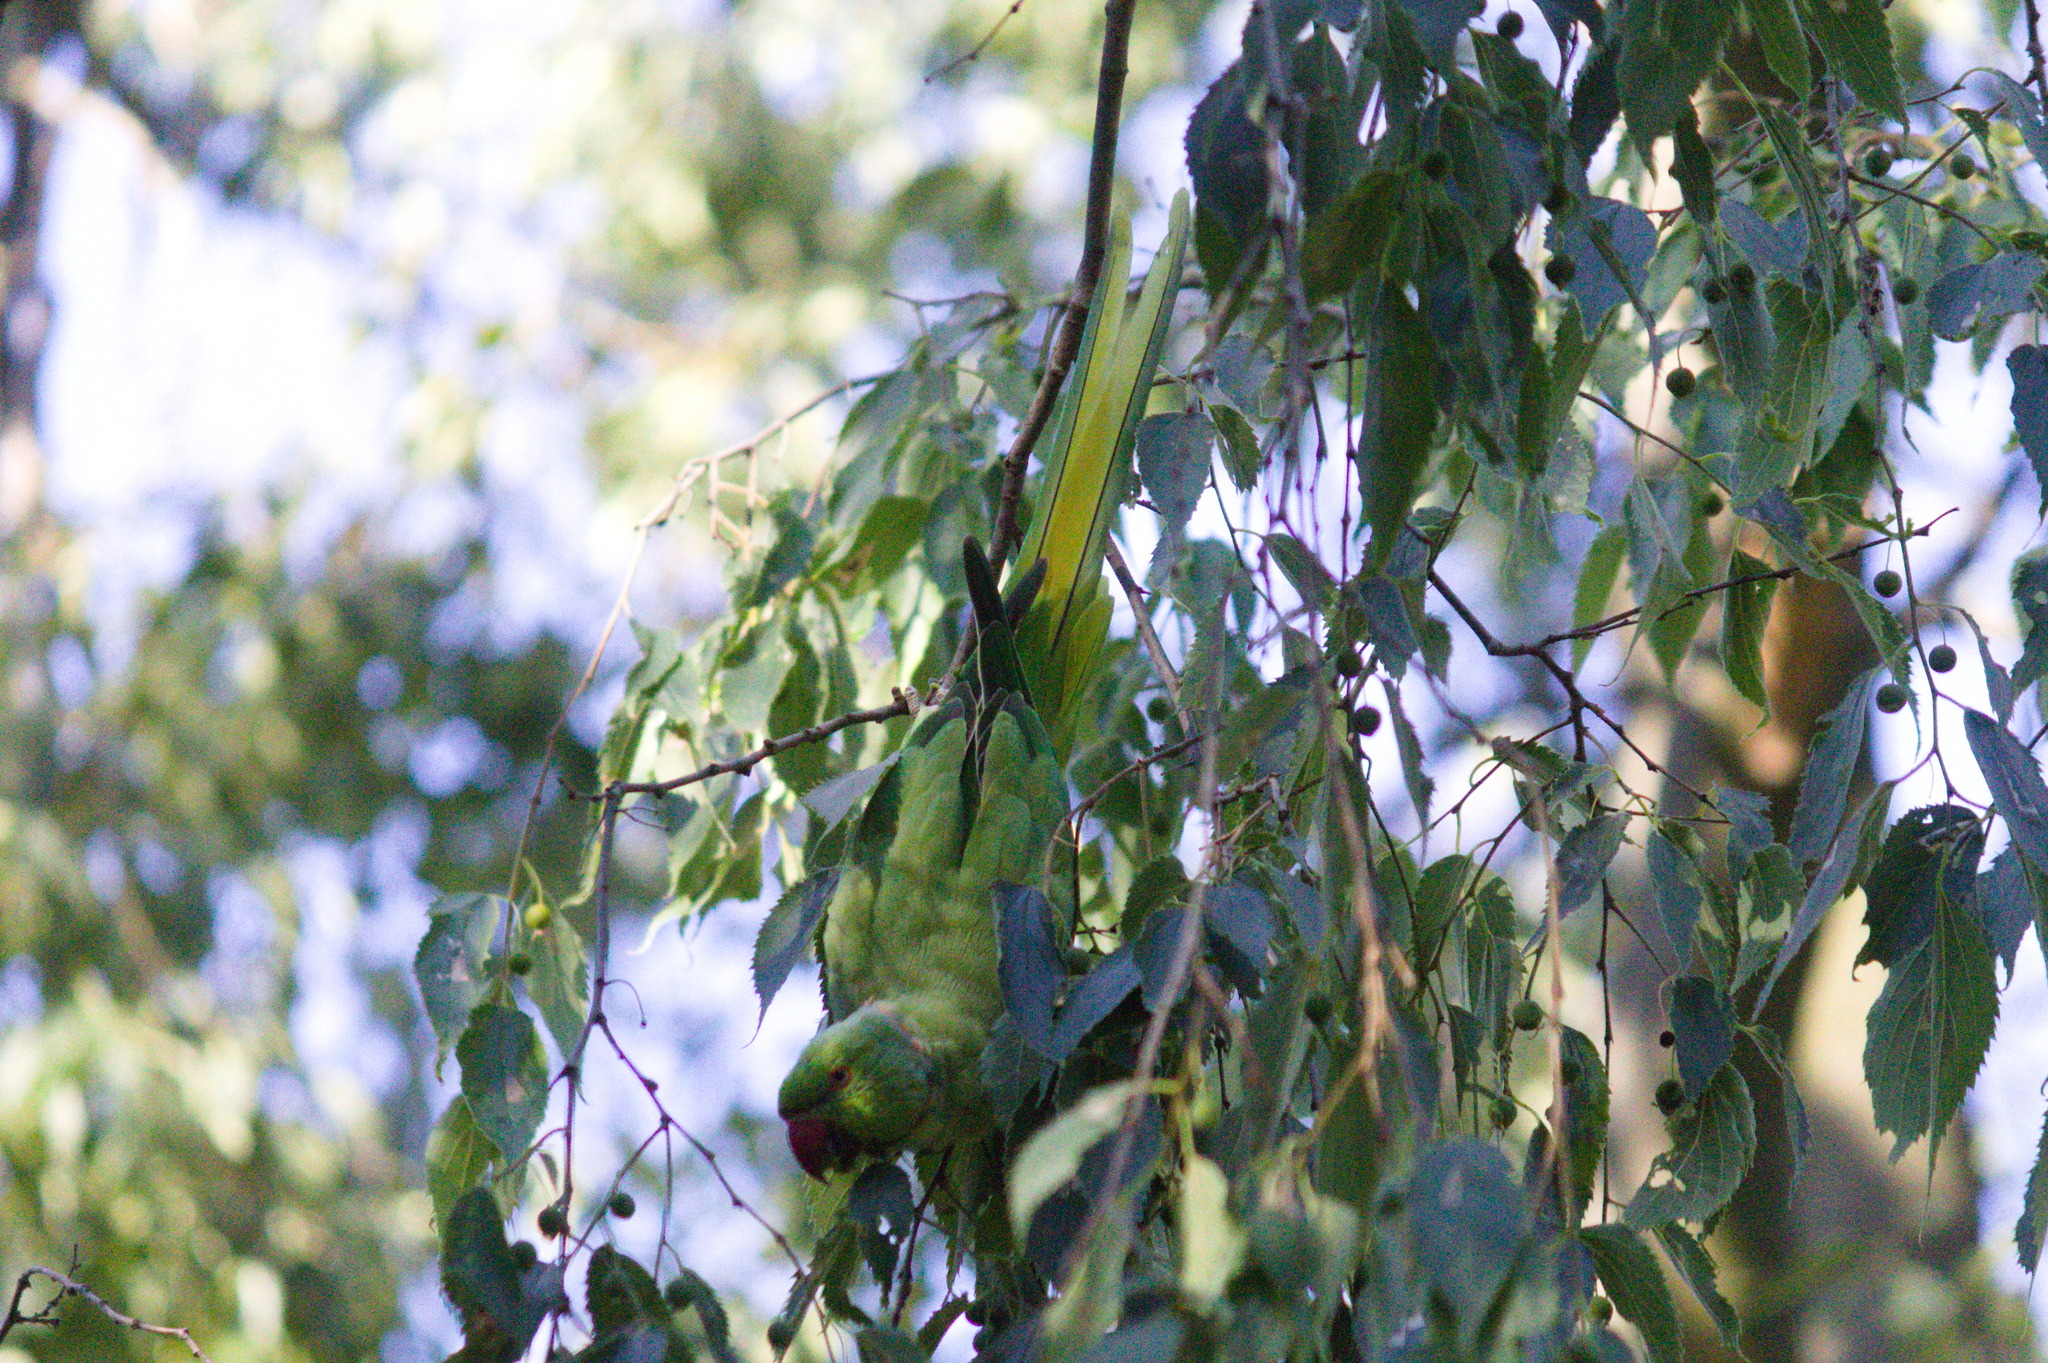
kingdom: Animalia
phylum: Chordata
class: Aves
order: Psittaciformes
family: Psittacidae
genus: Psittacula
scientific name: Psittacula krameri
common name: Rose-ringed parakeet
